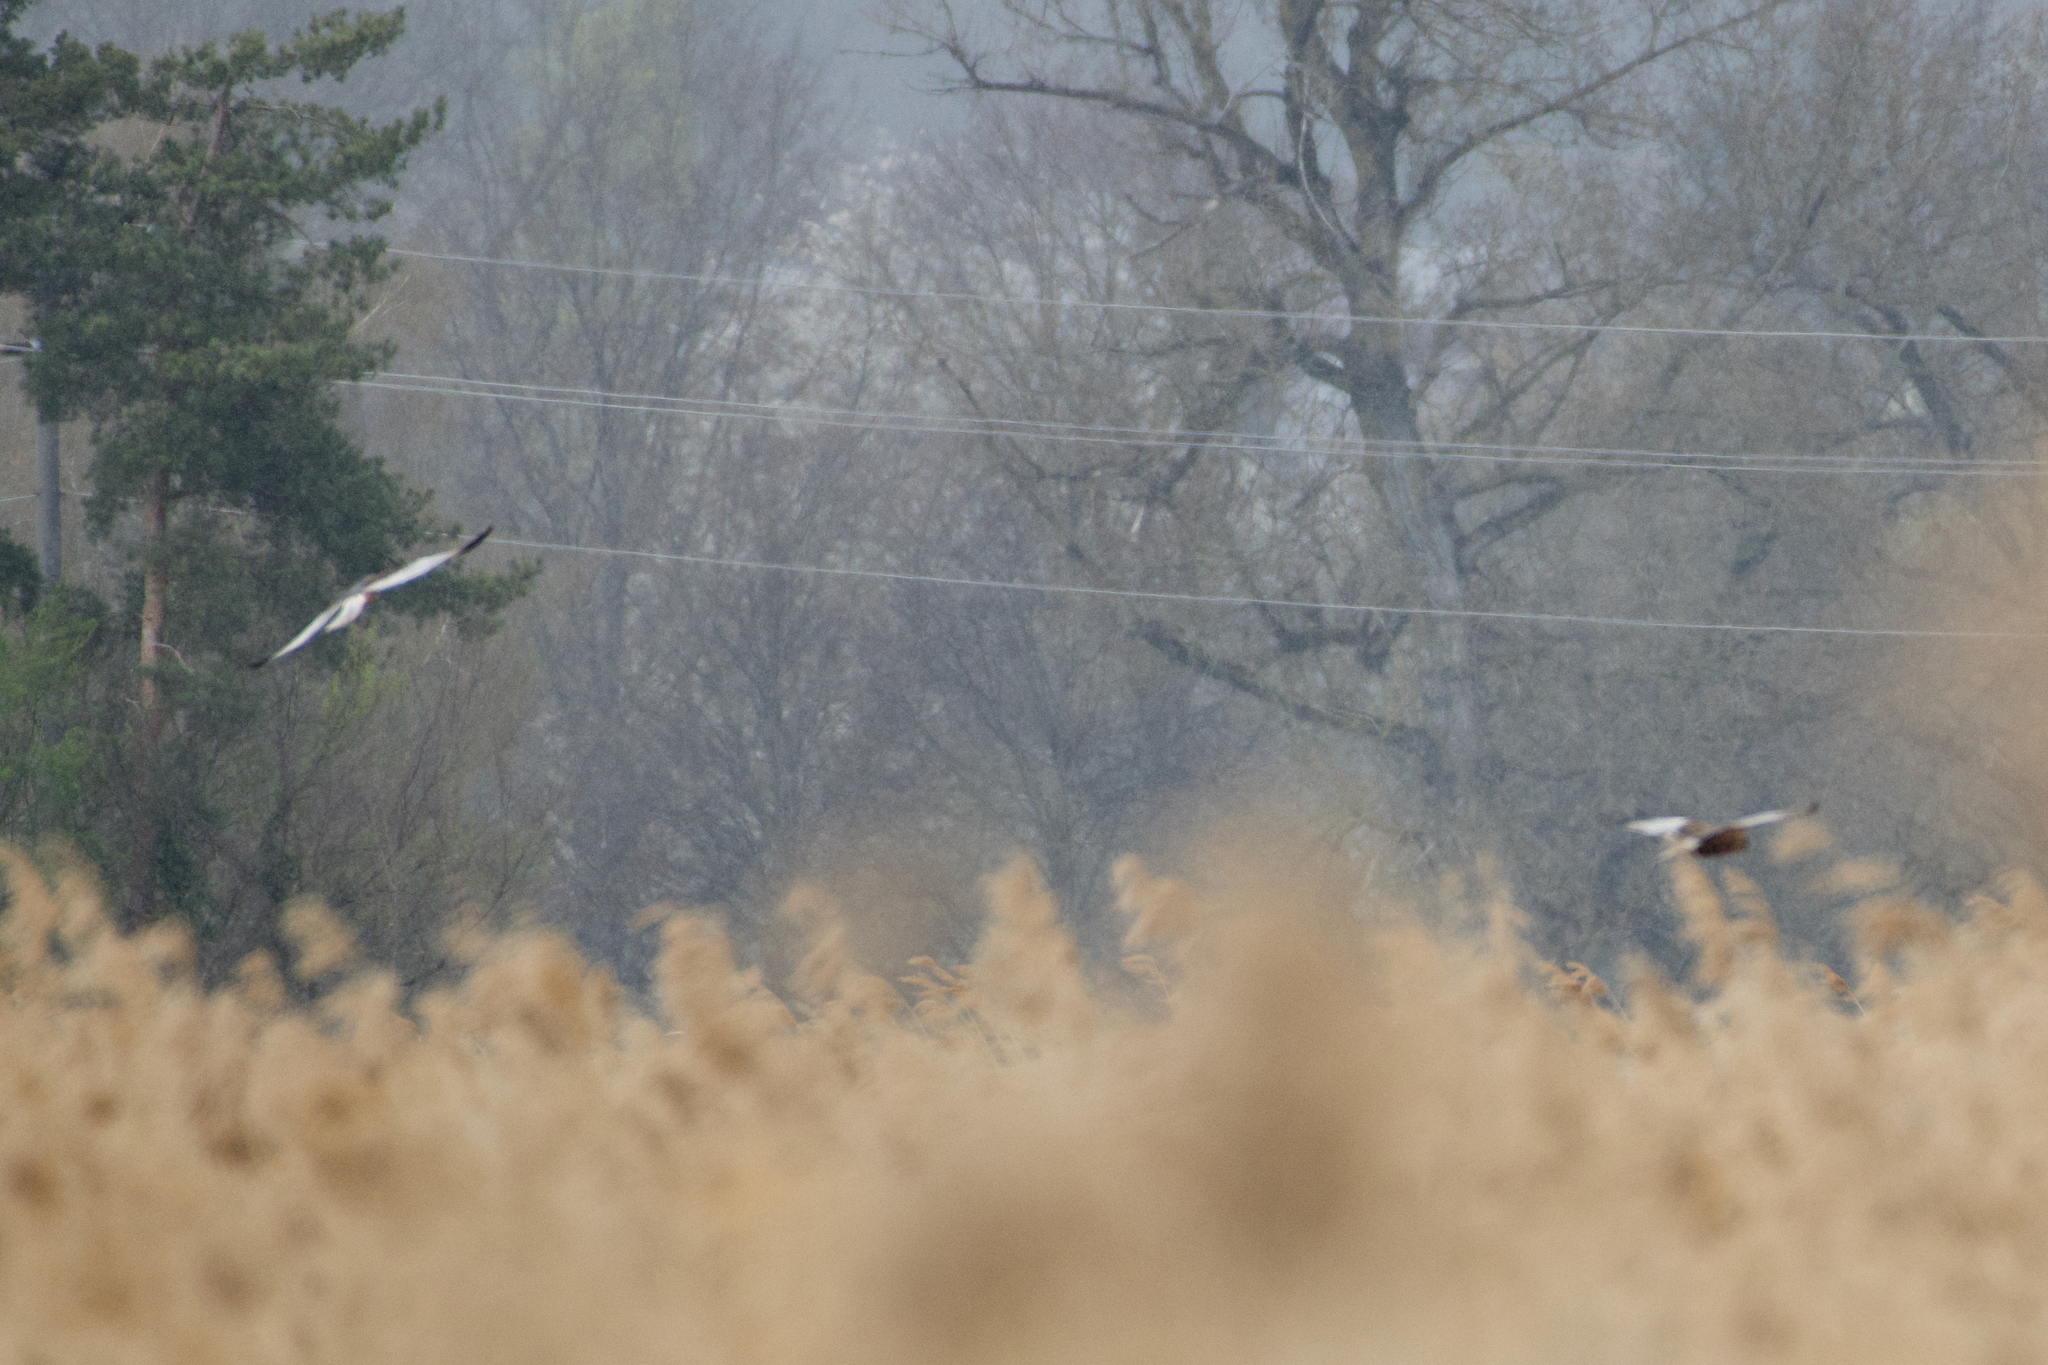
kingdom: Animalia
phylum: Chordata
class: Aves
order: Accipitriformes
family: Accipitridae
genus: Circus
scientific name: Circus aeruginosus
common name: Western marsh harrier
